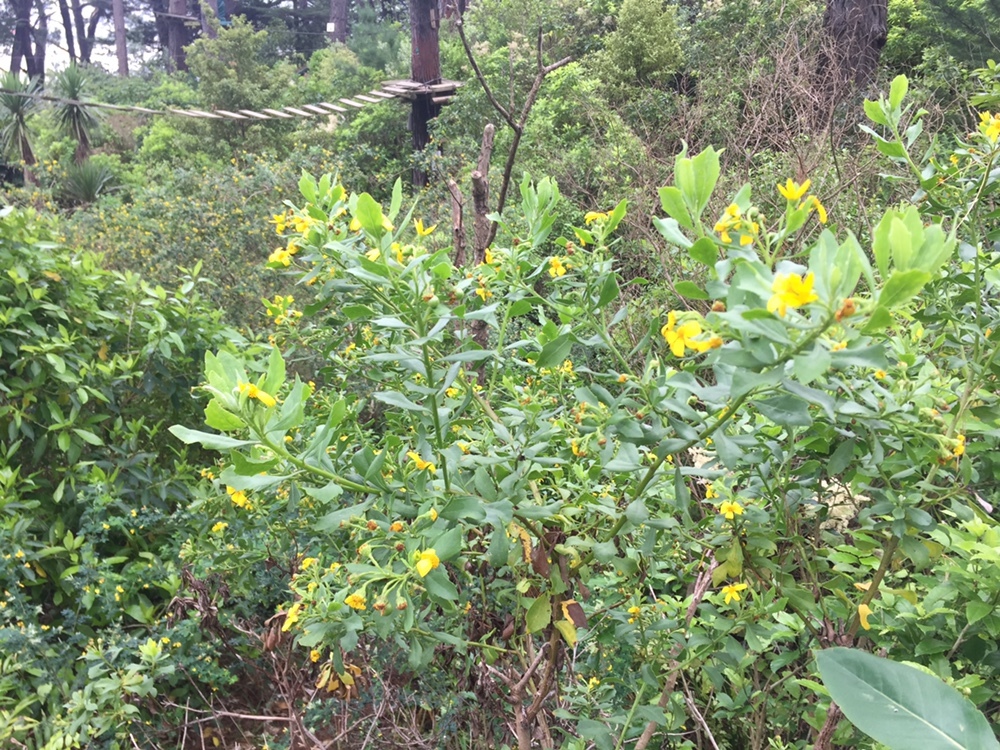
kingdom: Plantae
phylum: Tracheophyta
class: Magnoliopsida
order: Asterales
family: Asteraceae
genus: Osteospermum
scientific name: Osteospermum moniliferum
